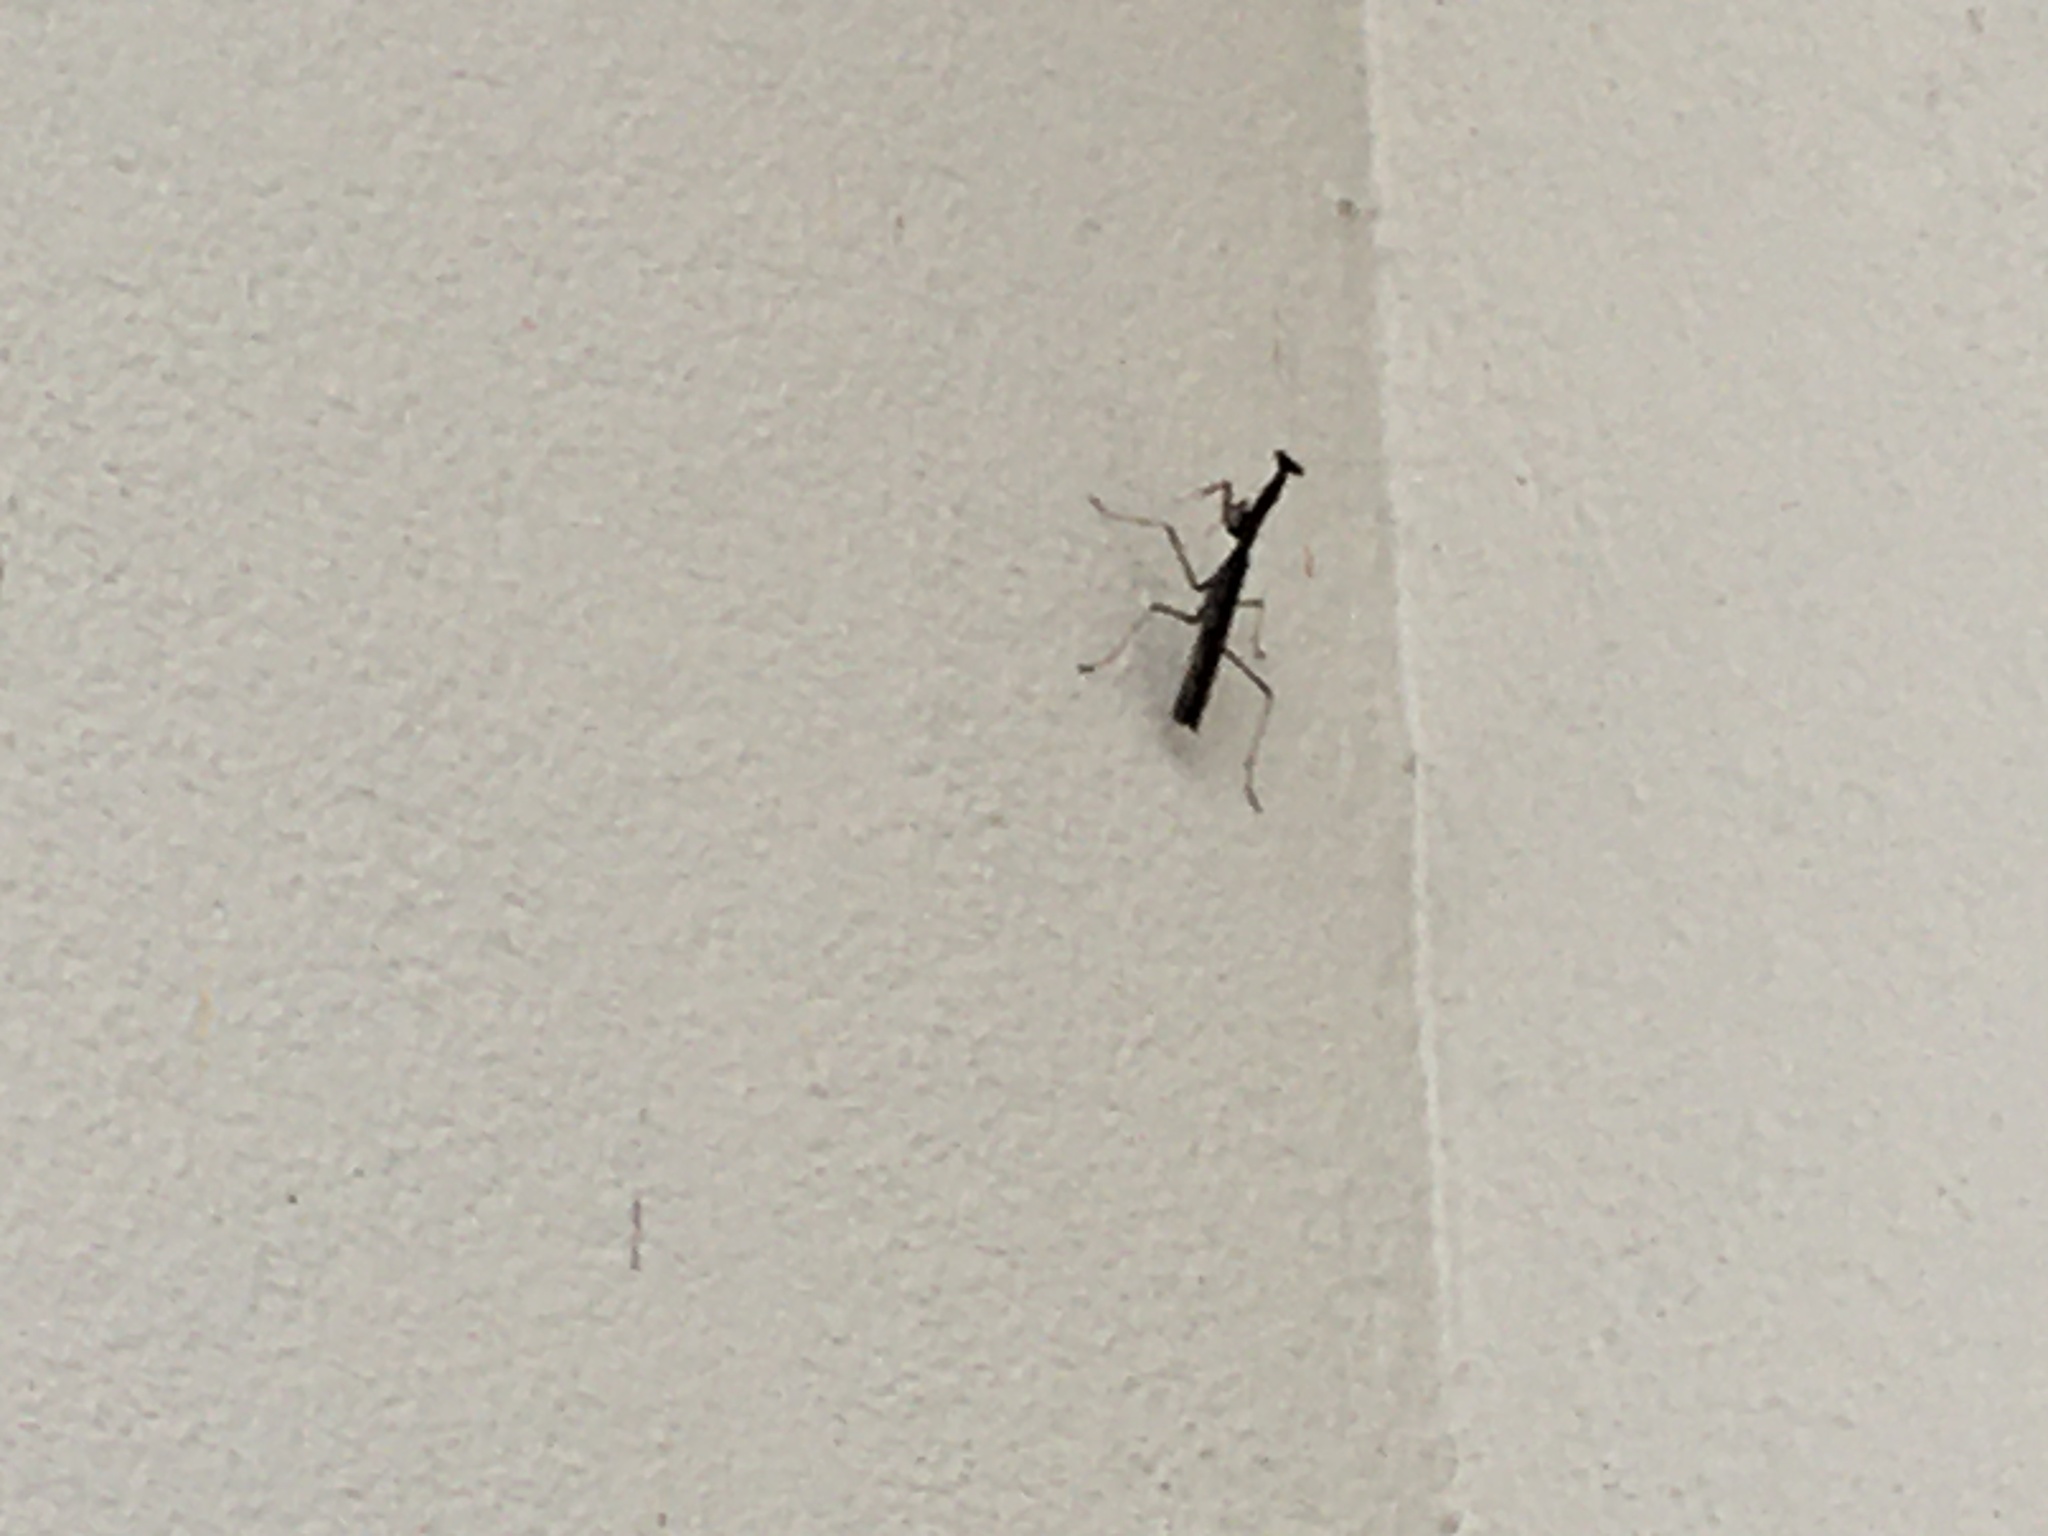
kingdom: Animalia
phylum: Arthropoda
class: Insecta
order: Mantodea
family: Mantidae
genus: Stagmomantis
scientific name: Stagmomantis carolina
